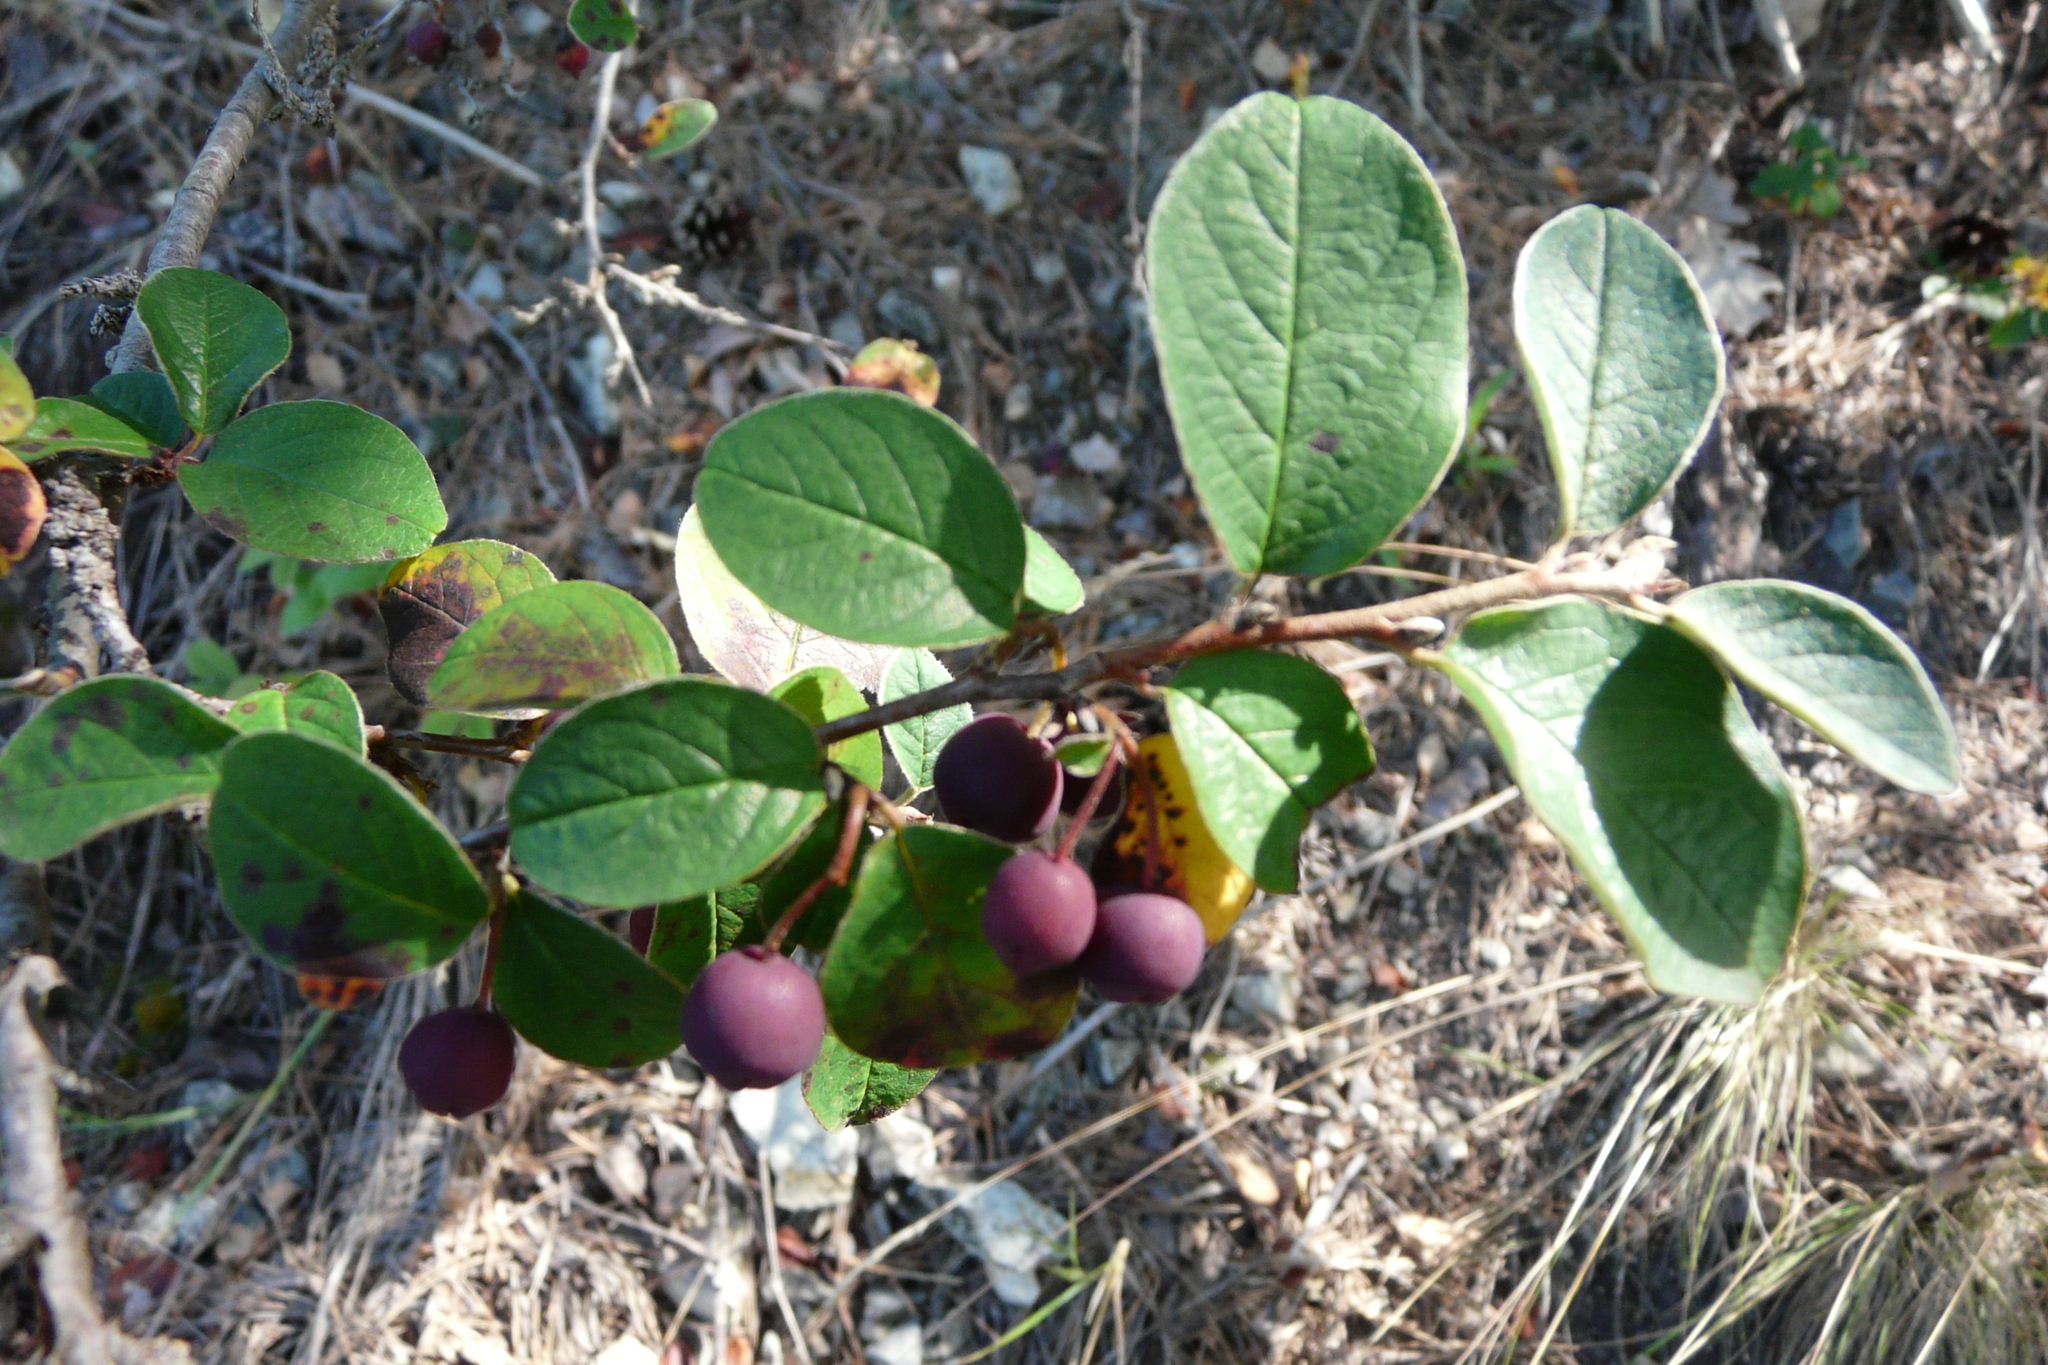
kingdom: Plantae
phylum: Tracheophyta
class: Magnoliopsida
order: Rosales
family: Rosaceae
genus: Cotoneaster
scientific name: Cotoneaster melanocarpus
